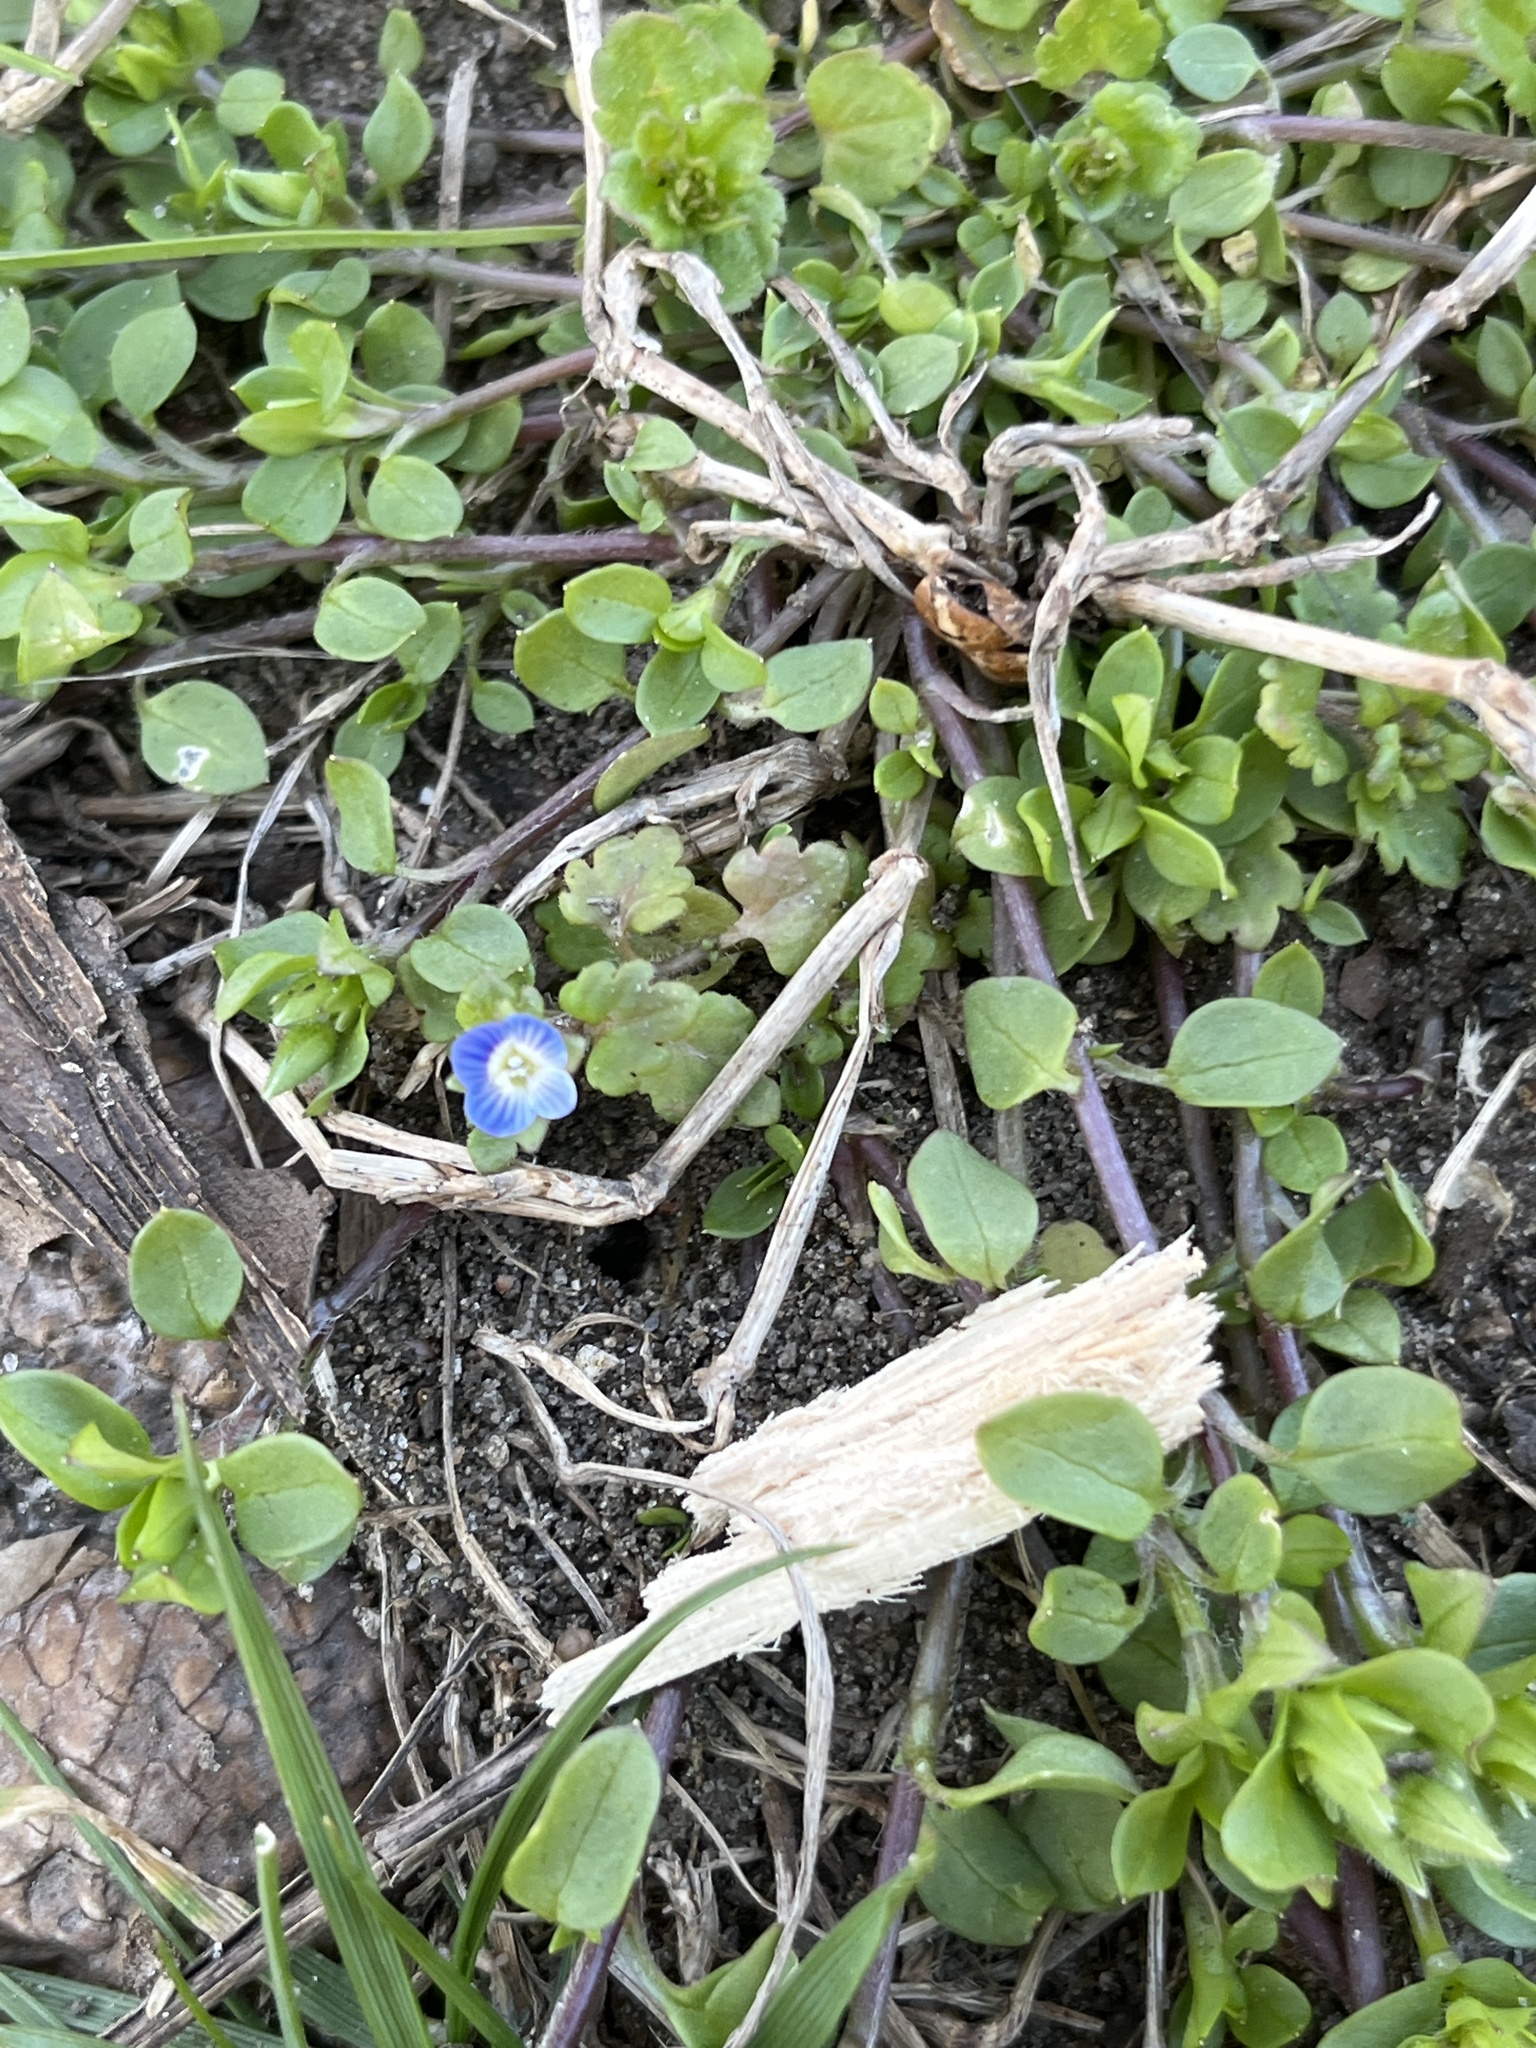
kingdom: Plantae
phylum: Tracheophyta
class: Magnoliopsida
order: Lamiales
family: Plantaginaceae
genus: Veronica
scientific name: Veronica polita
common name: Grey field-speedwell
